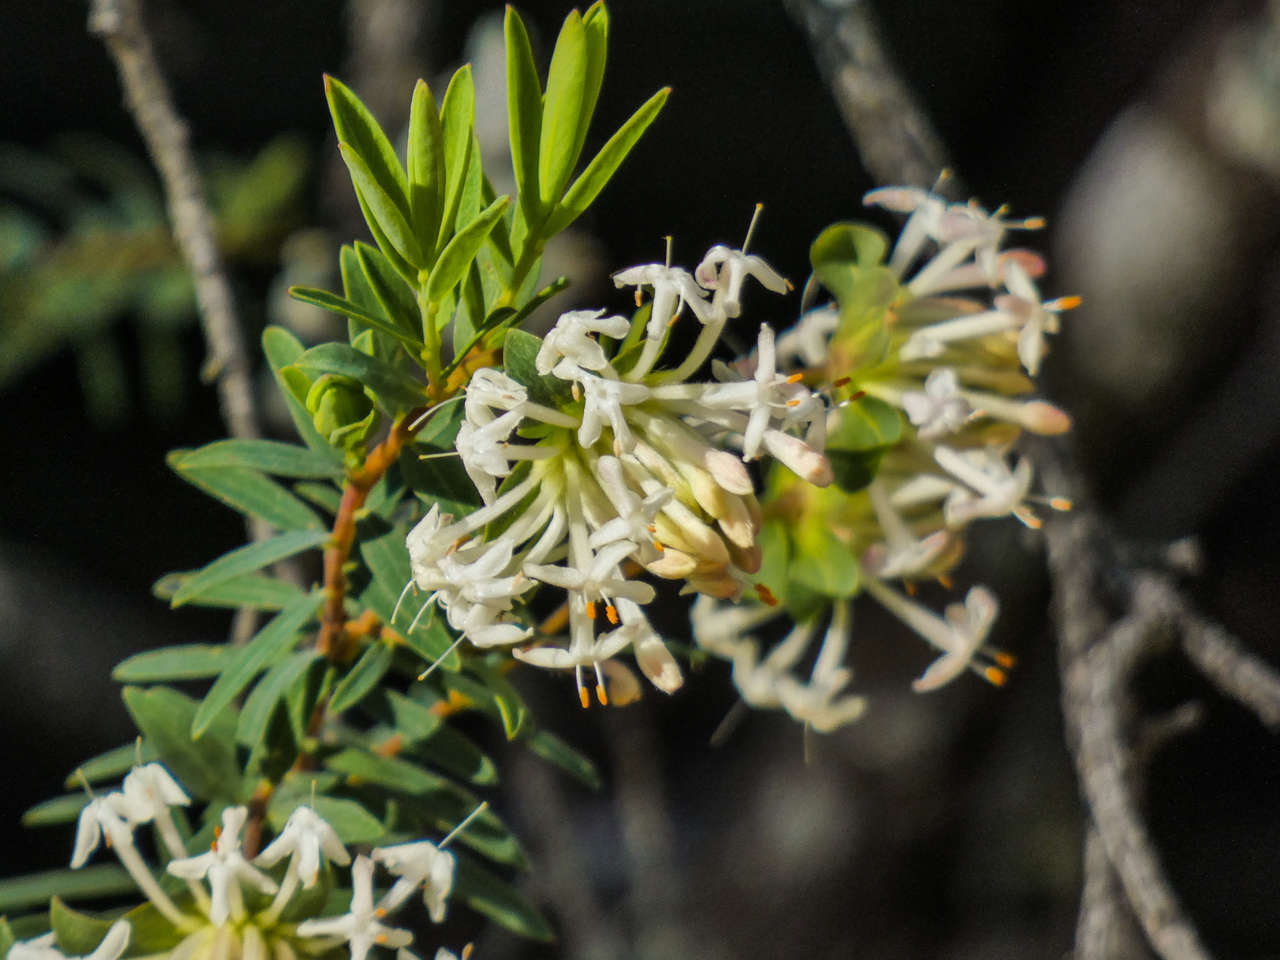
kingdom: Plantae
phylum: Tracheophyta
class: Magnoliopsida
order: Malvales
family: Thymelaeaceae
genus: Pimelea
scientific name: Pimelea linifolia
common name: Queen-of-the-bush
